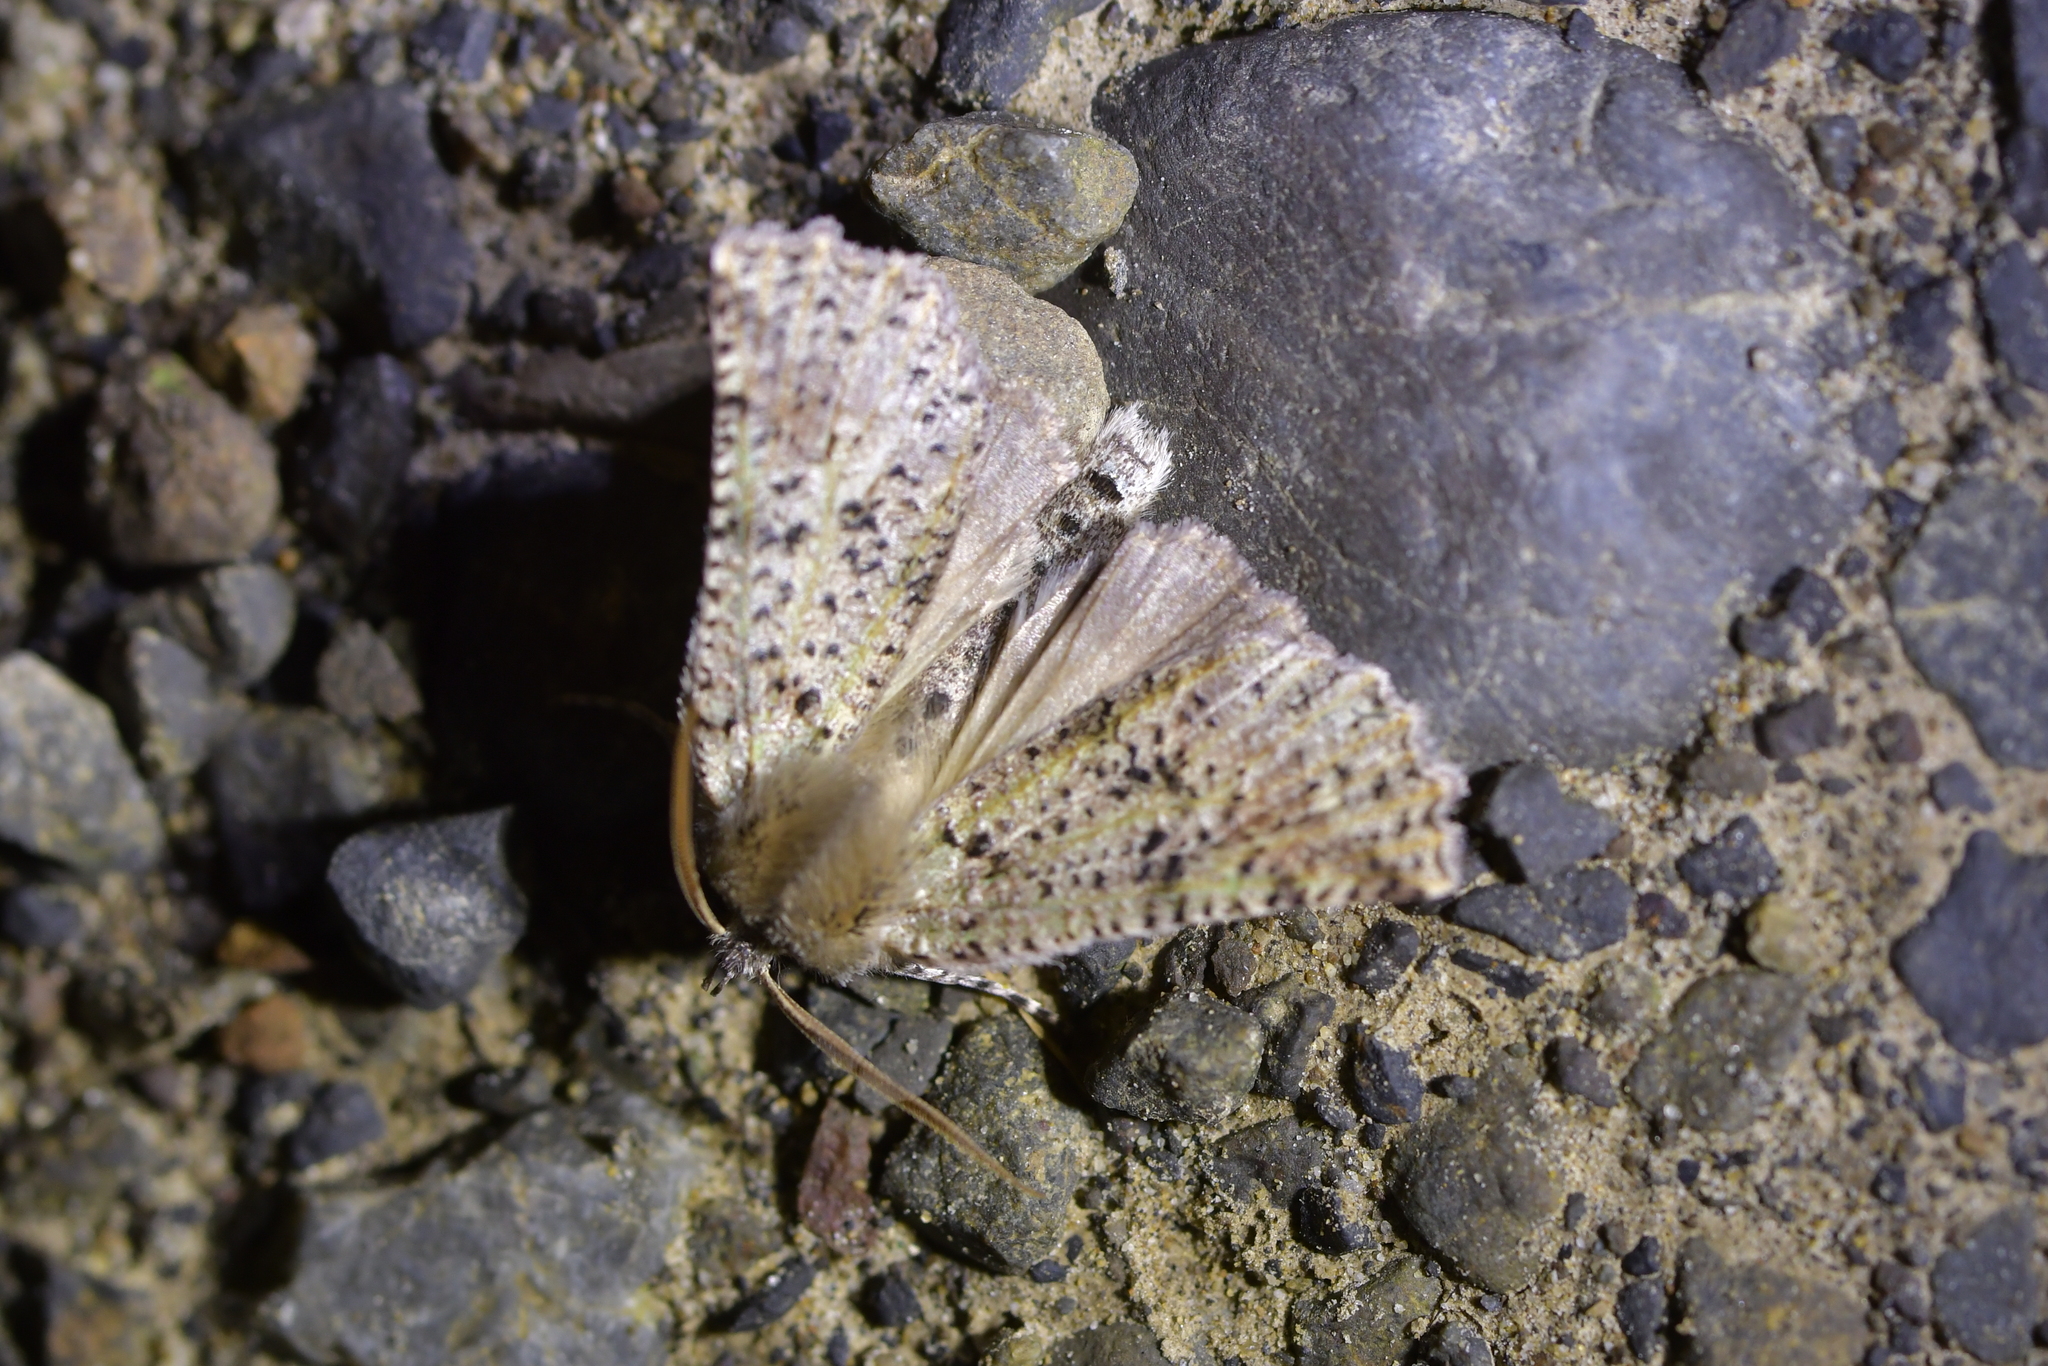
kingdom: Animalia
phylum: Arthropoda
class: Insecta
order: Lepidoptera
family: Geometridae
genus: Declana
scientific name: Declana floccosa
